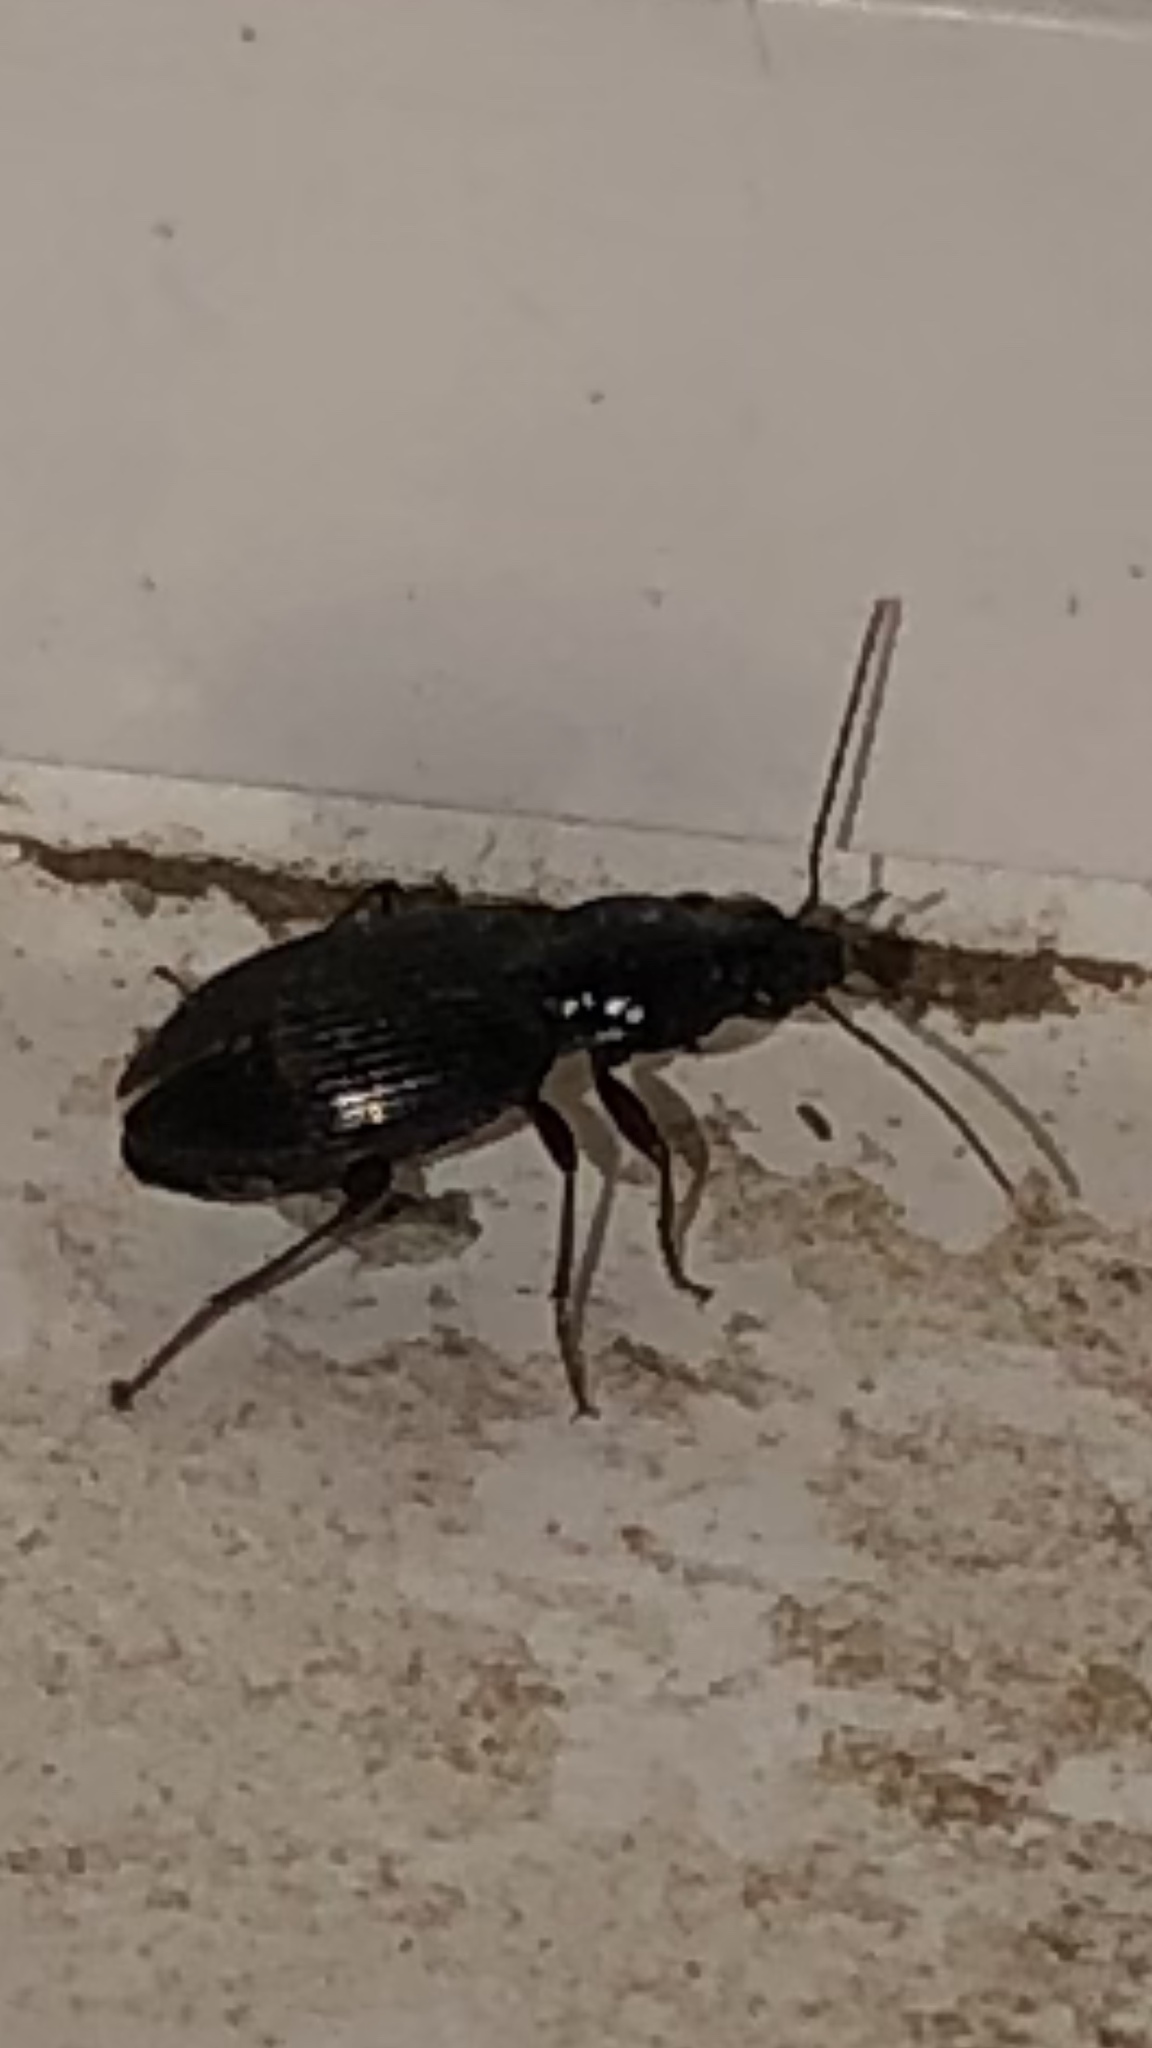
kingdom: Animalia
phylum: Arthropoda
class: Insecta
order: Coleoptera
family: Carabidae
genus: Agonum
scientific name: Agonum punctiforme
